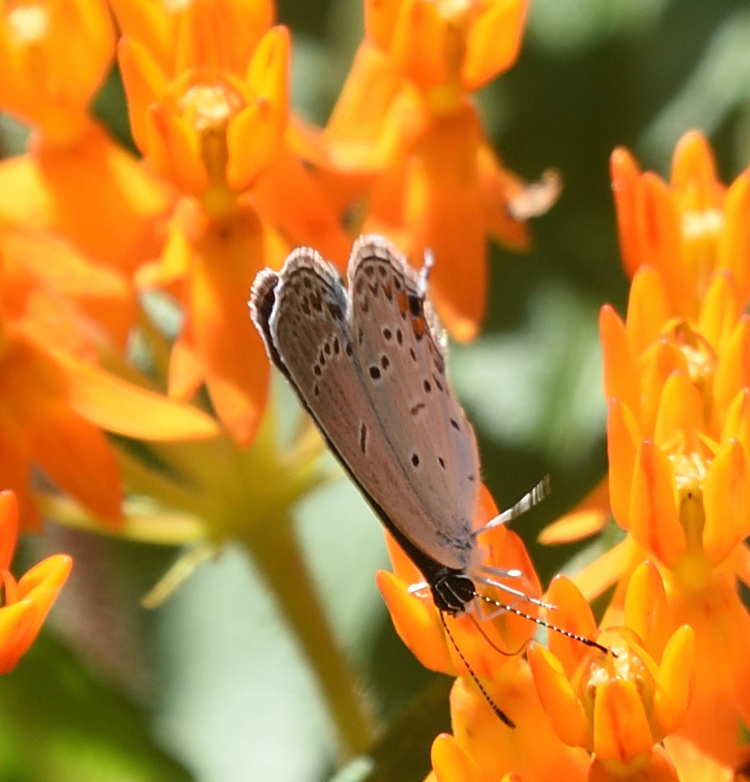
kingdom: Animalia
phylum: Arthropoda
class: Insecta
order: Lepidoptera
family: Lycaenidae
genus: Elkalyce
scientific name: Elkalyce comyntas
